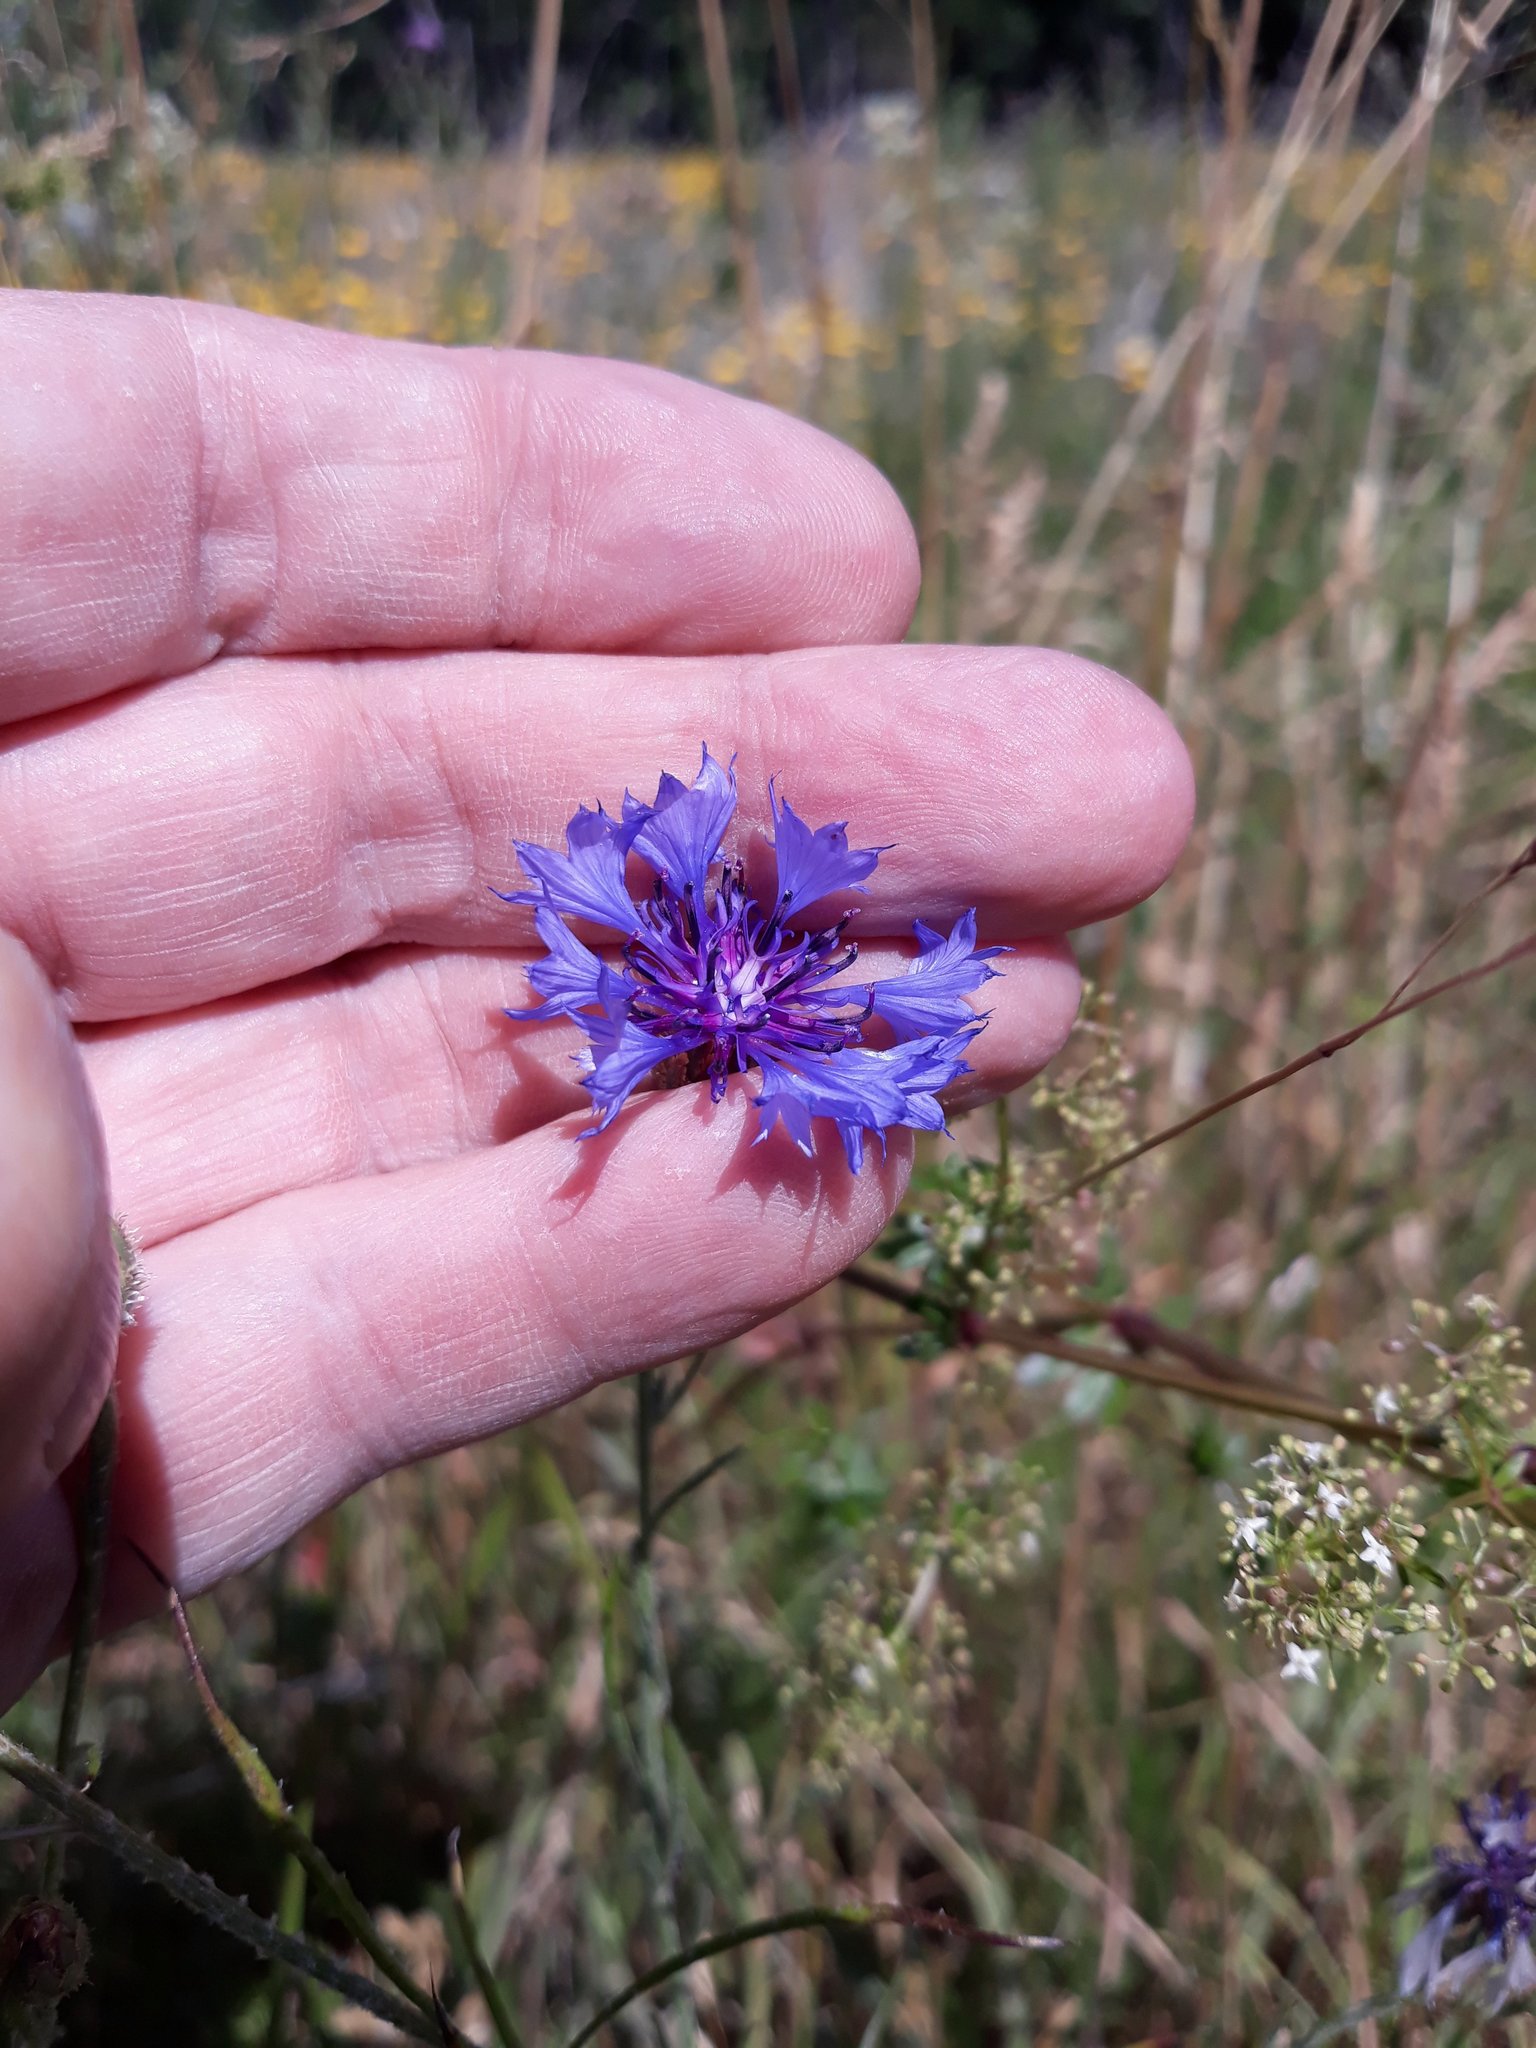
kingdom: Plantae
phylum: Tracheophyta
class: Magnoliopsida
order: Asterales
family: Asteraceae
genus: Centaurea
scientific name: Centaurea cyanus
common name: Cornflower
